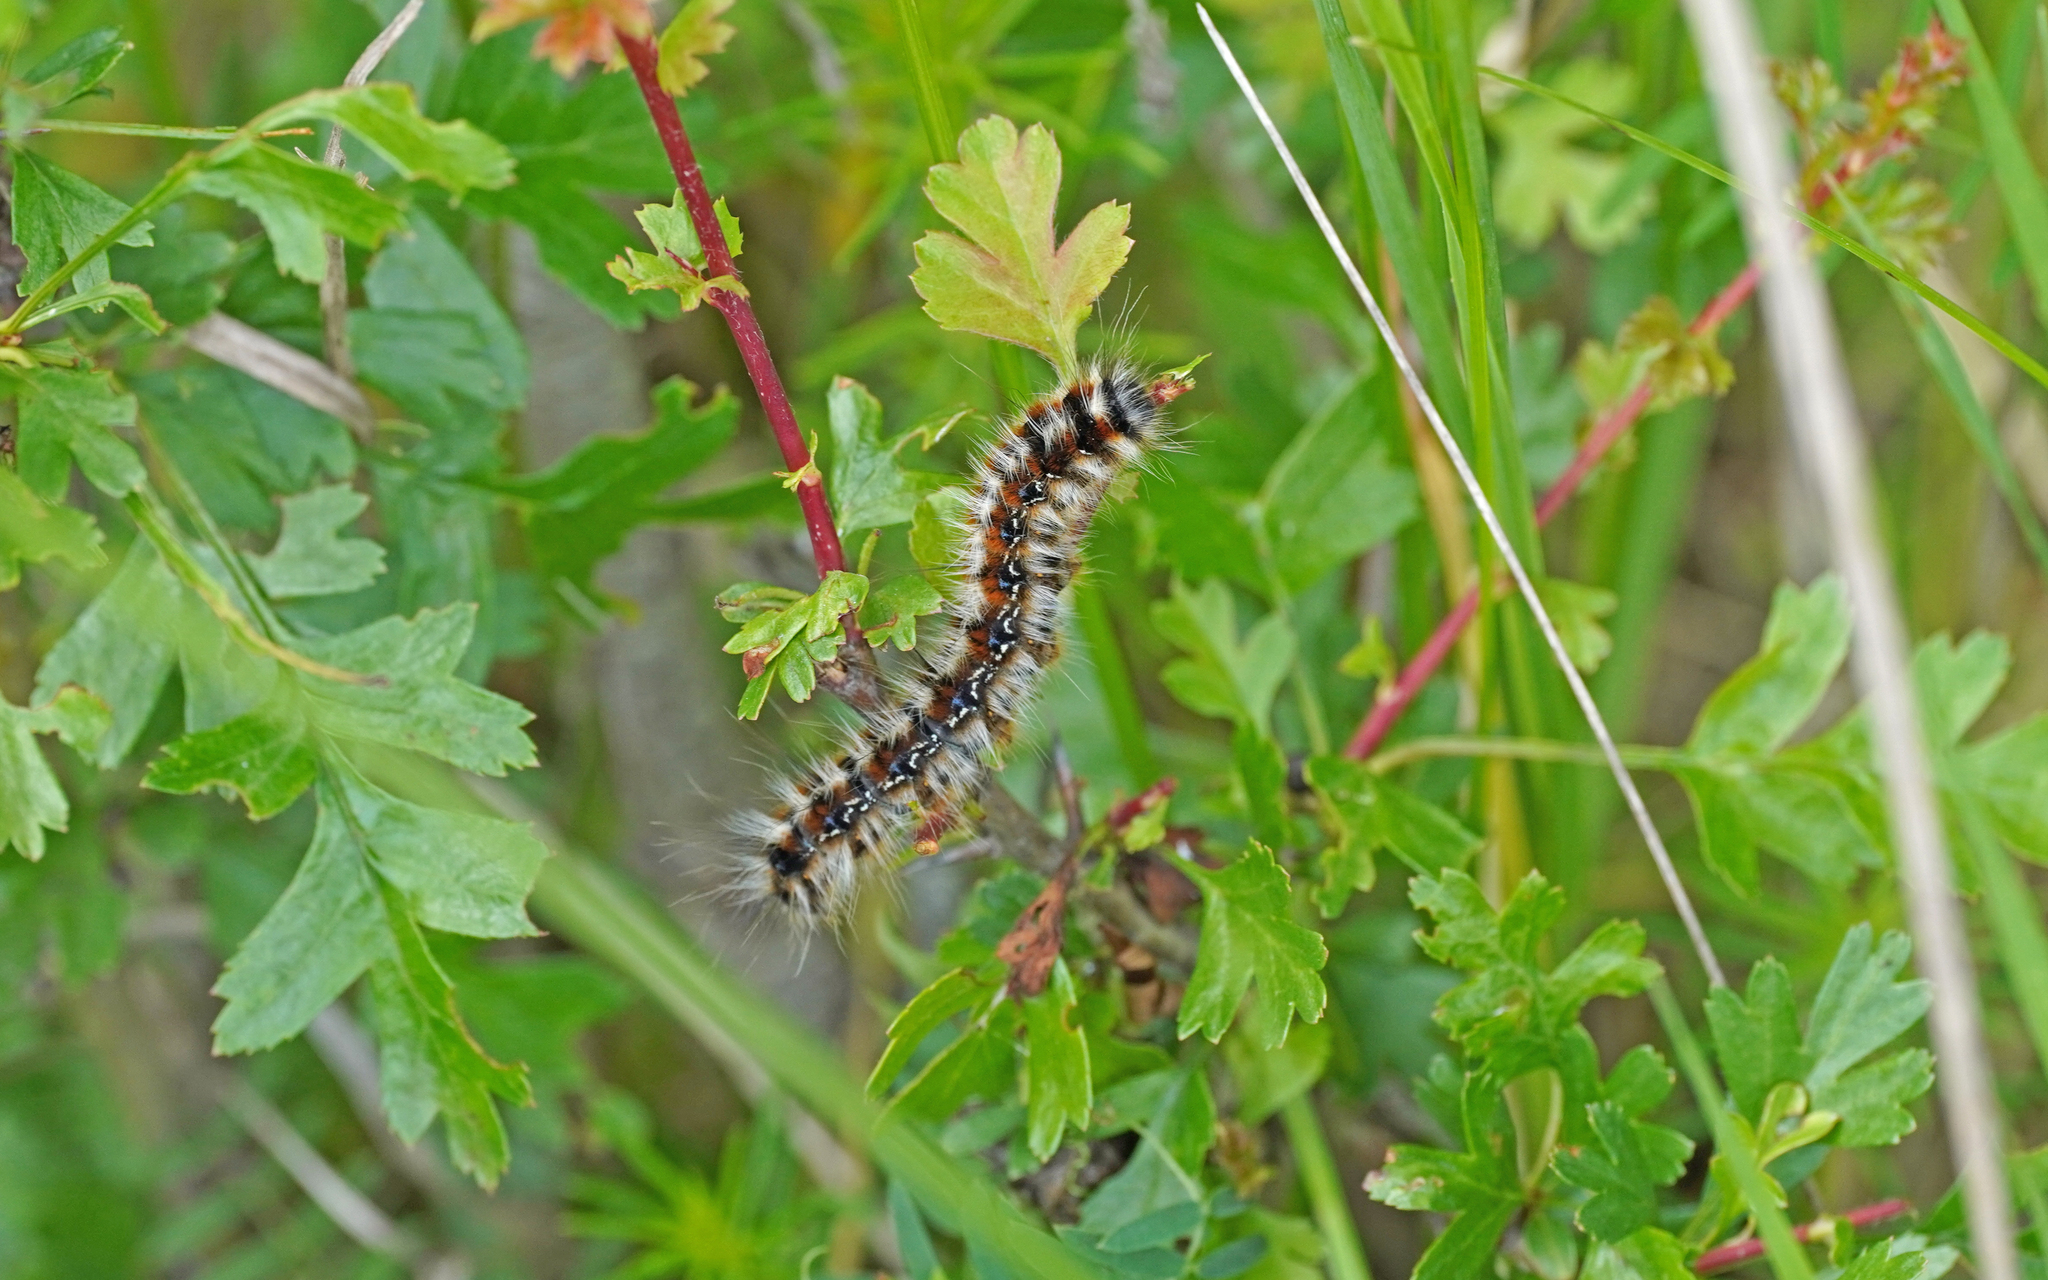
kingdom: Animalia
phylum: Arthropoda
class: Insecta
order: Lepidoptera
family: Lasiocampidae
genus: Eriogaster
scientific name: Eriogaster catax
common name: Eastern eggar
